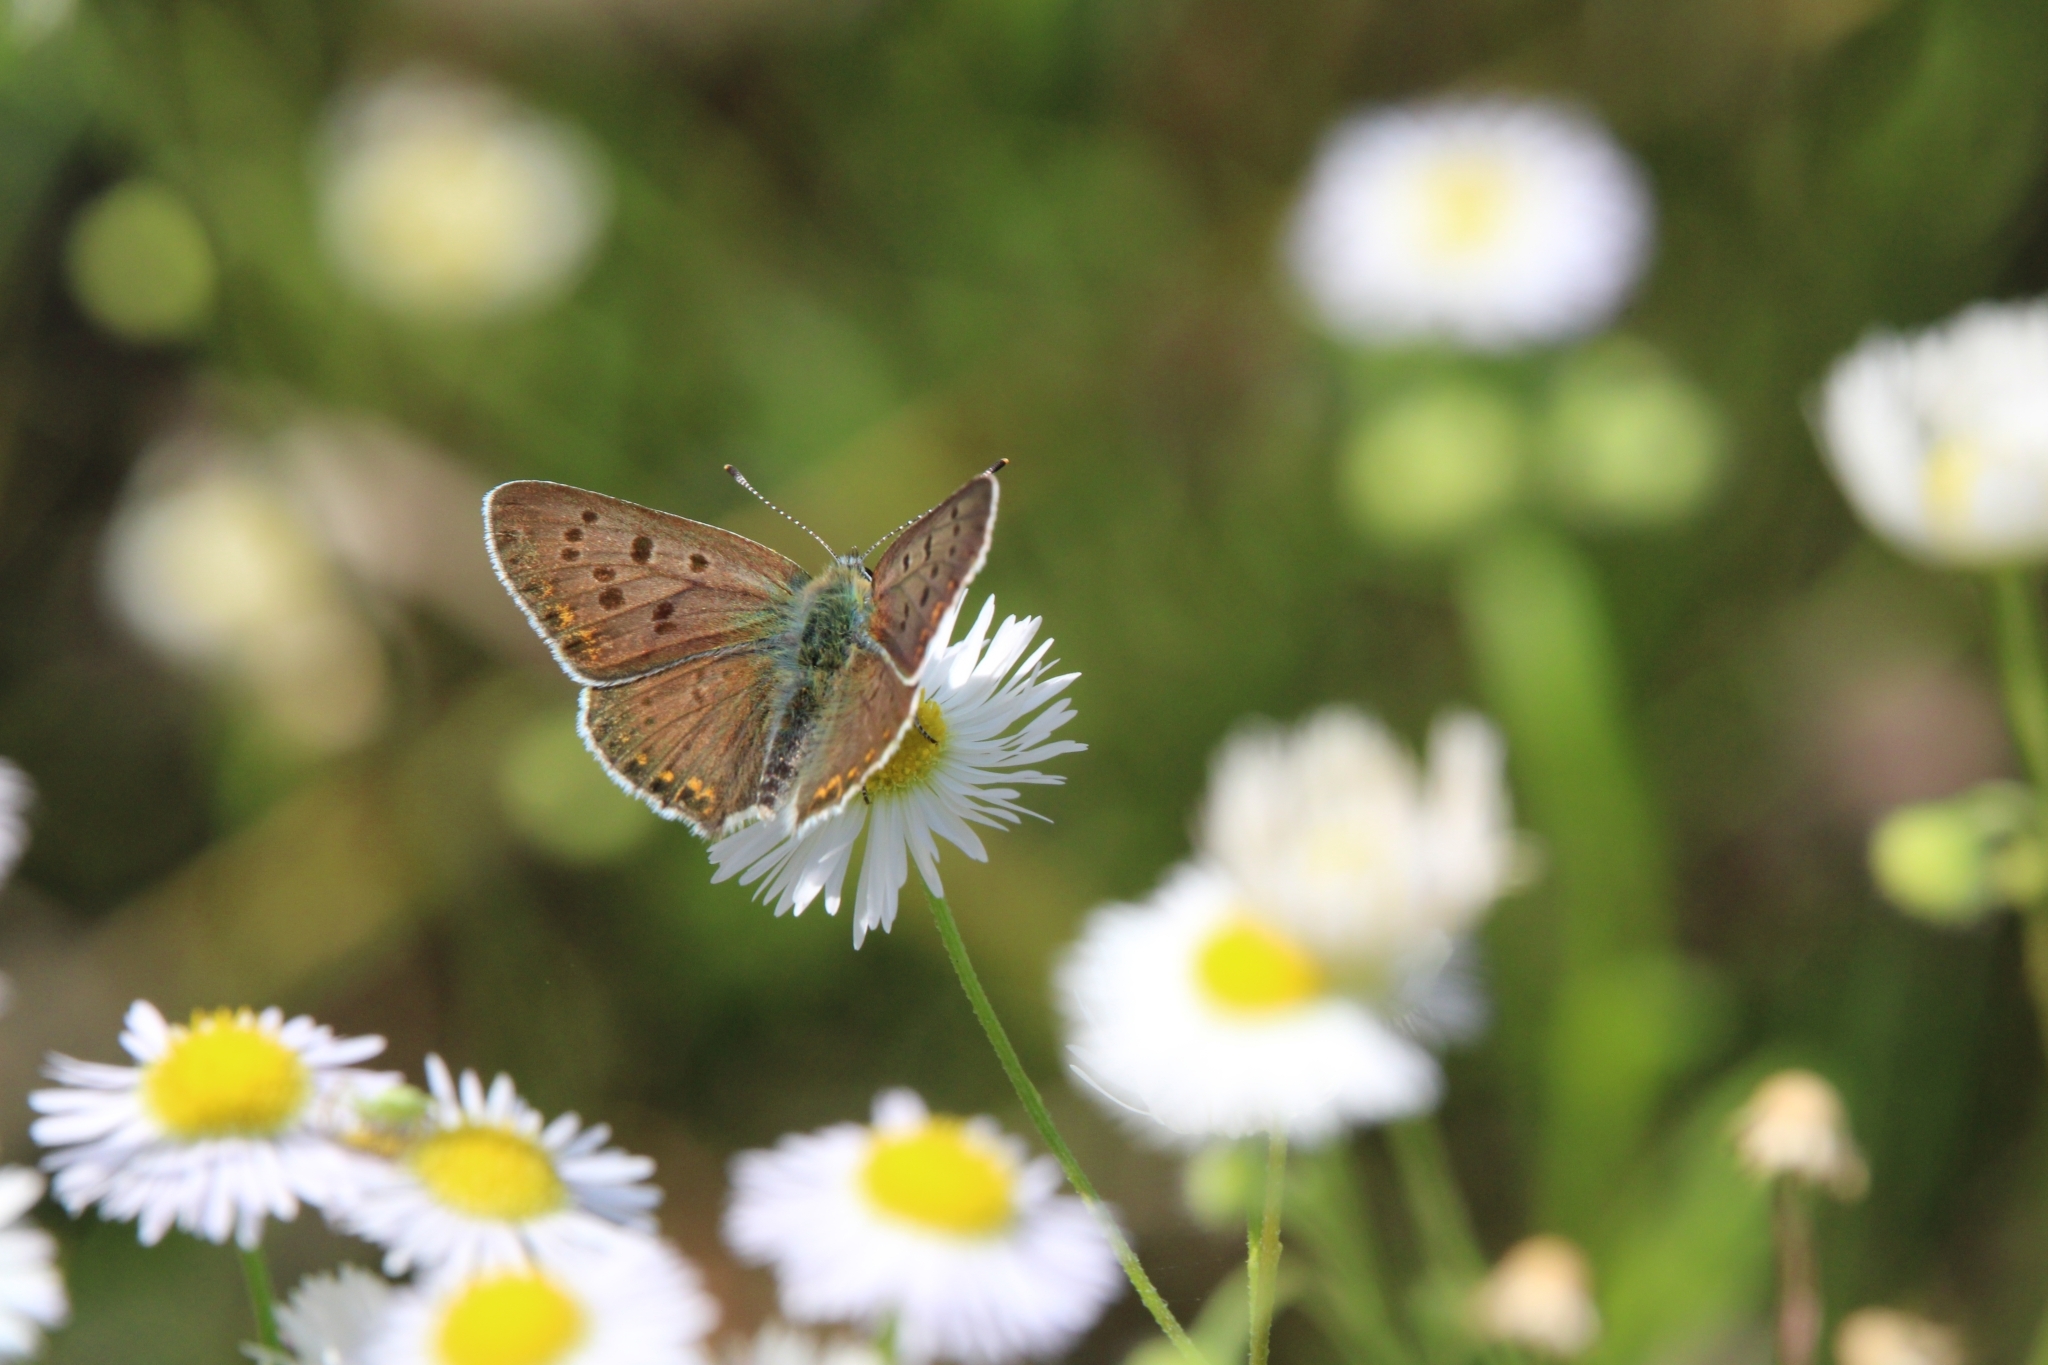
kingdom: Animalia
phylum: Arthropoda
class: Insecta
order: Lepidoptera
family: Lycaenidae
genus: Loweia
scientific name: Loweia tityrus
